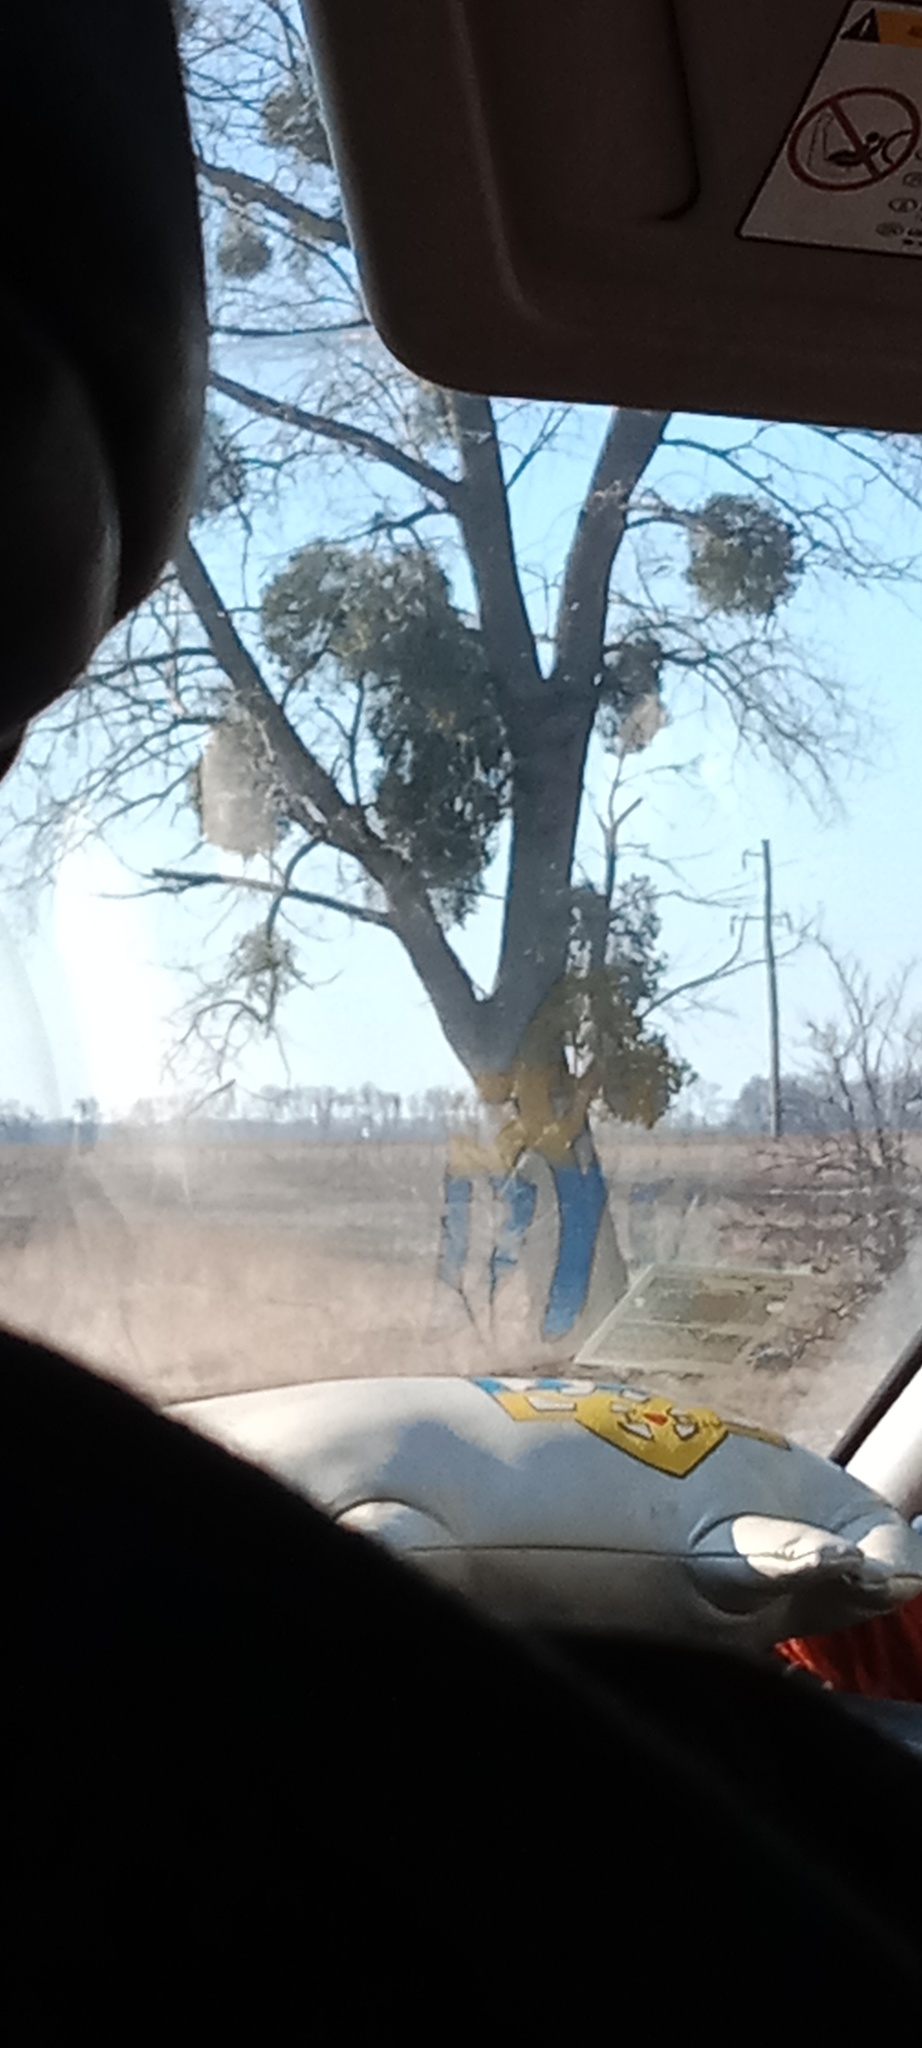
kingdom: Plantae
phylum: Tracheophyta
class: Magnoliopsida
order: Santalales
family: Viscaceae
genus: Viscum
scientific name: Viscum album
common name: Mistletoe
